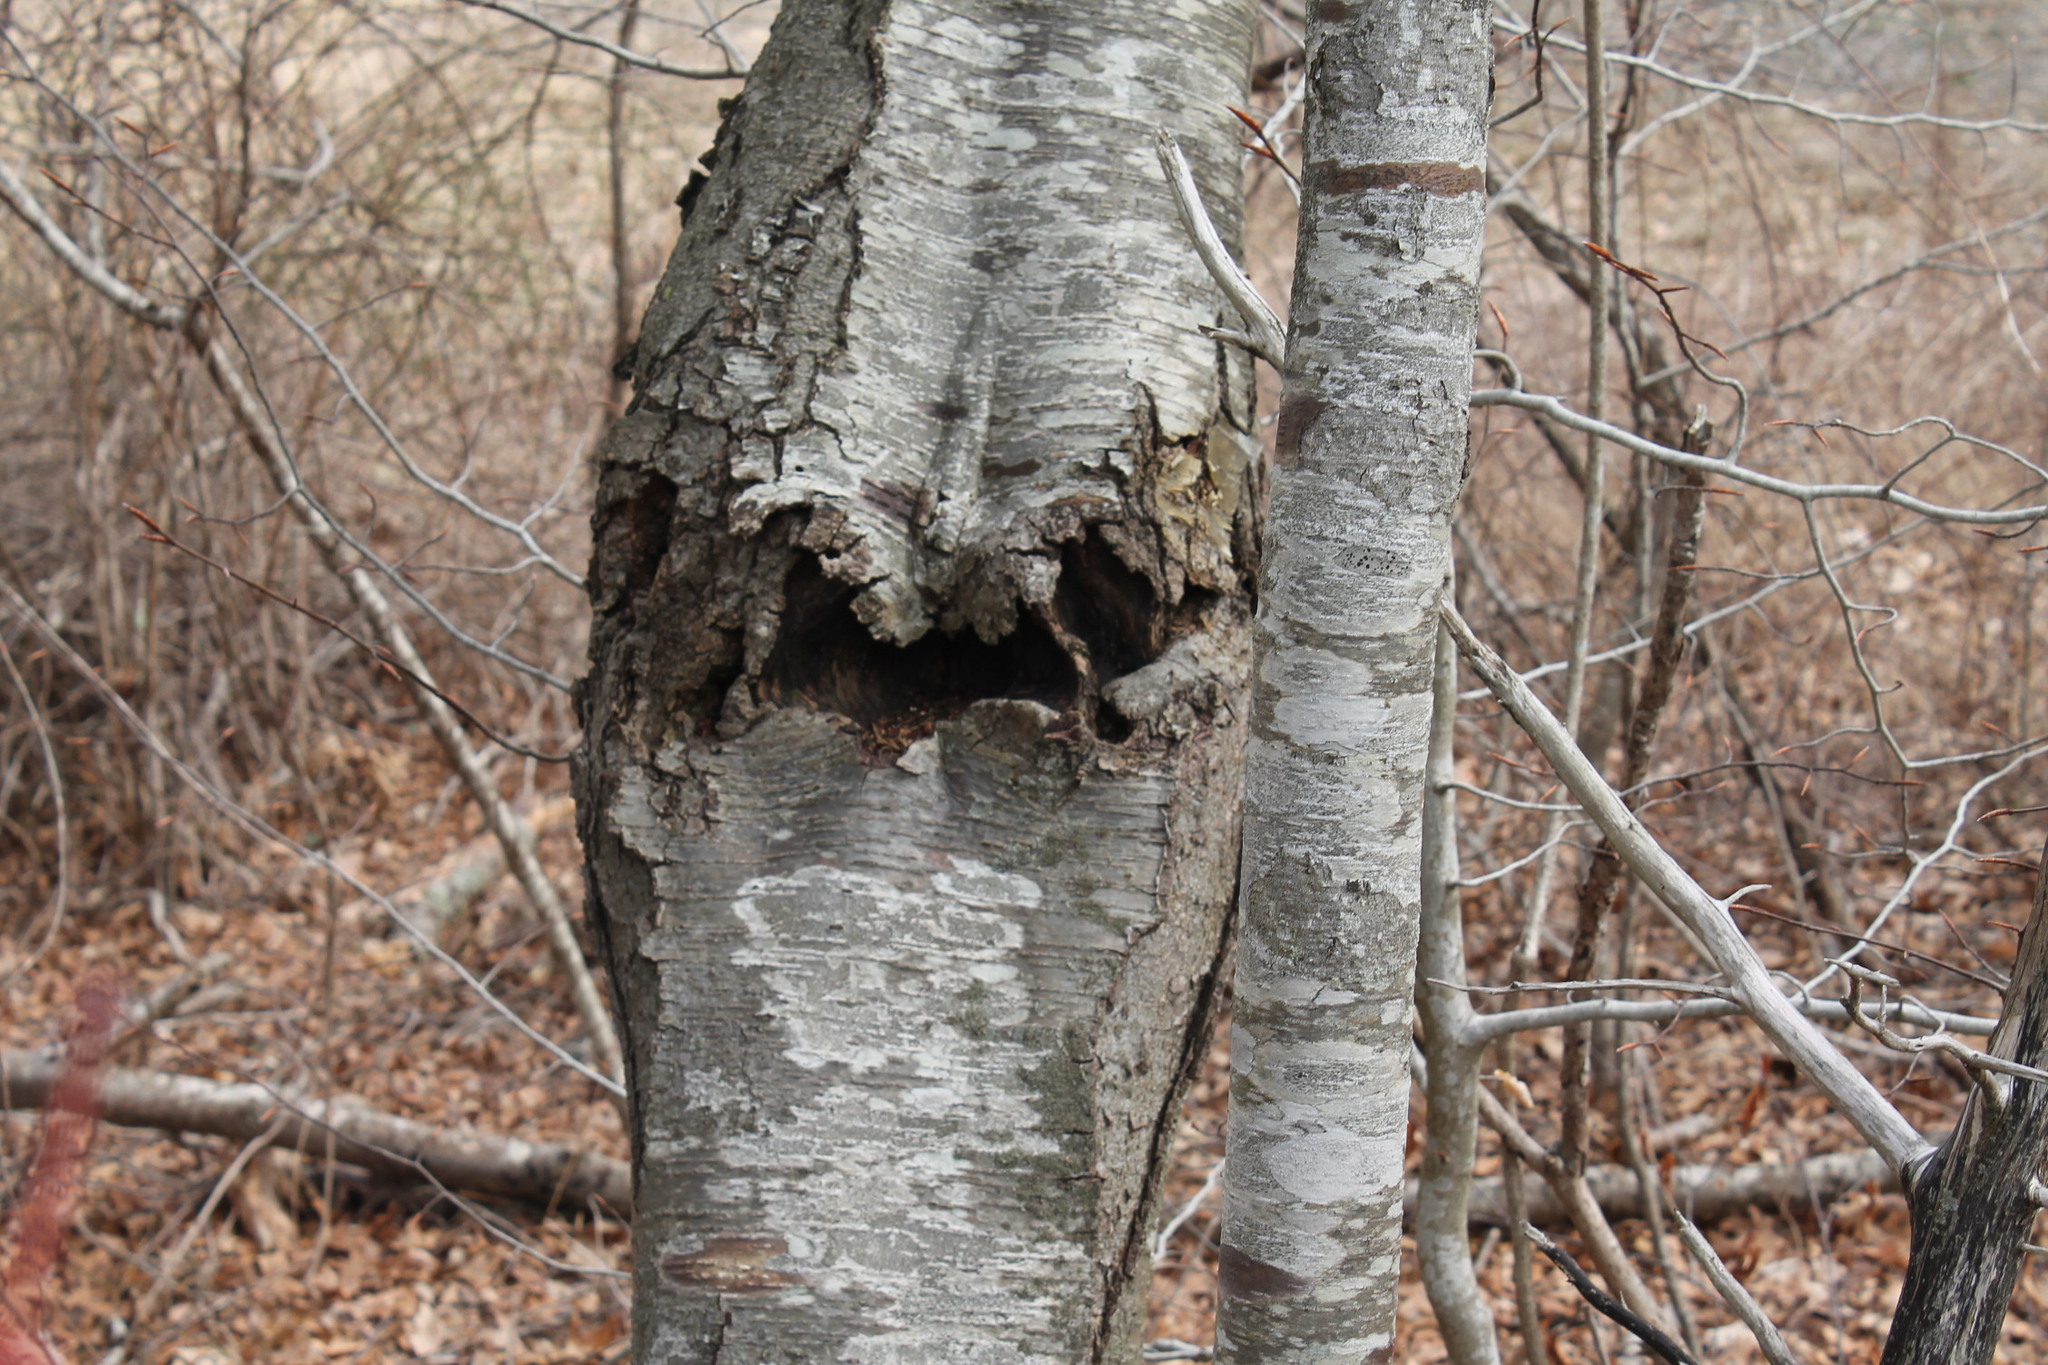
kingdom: Fungi
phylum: Ascomycota
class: Sordariomycetes
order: Hypocreales
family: Nectriaceae
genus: Neonectria
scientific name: Neonectria ditissima
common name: Apple canker
